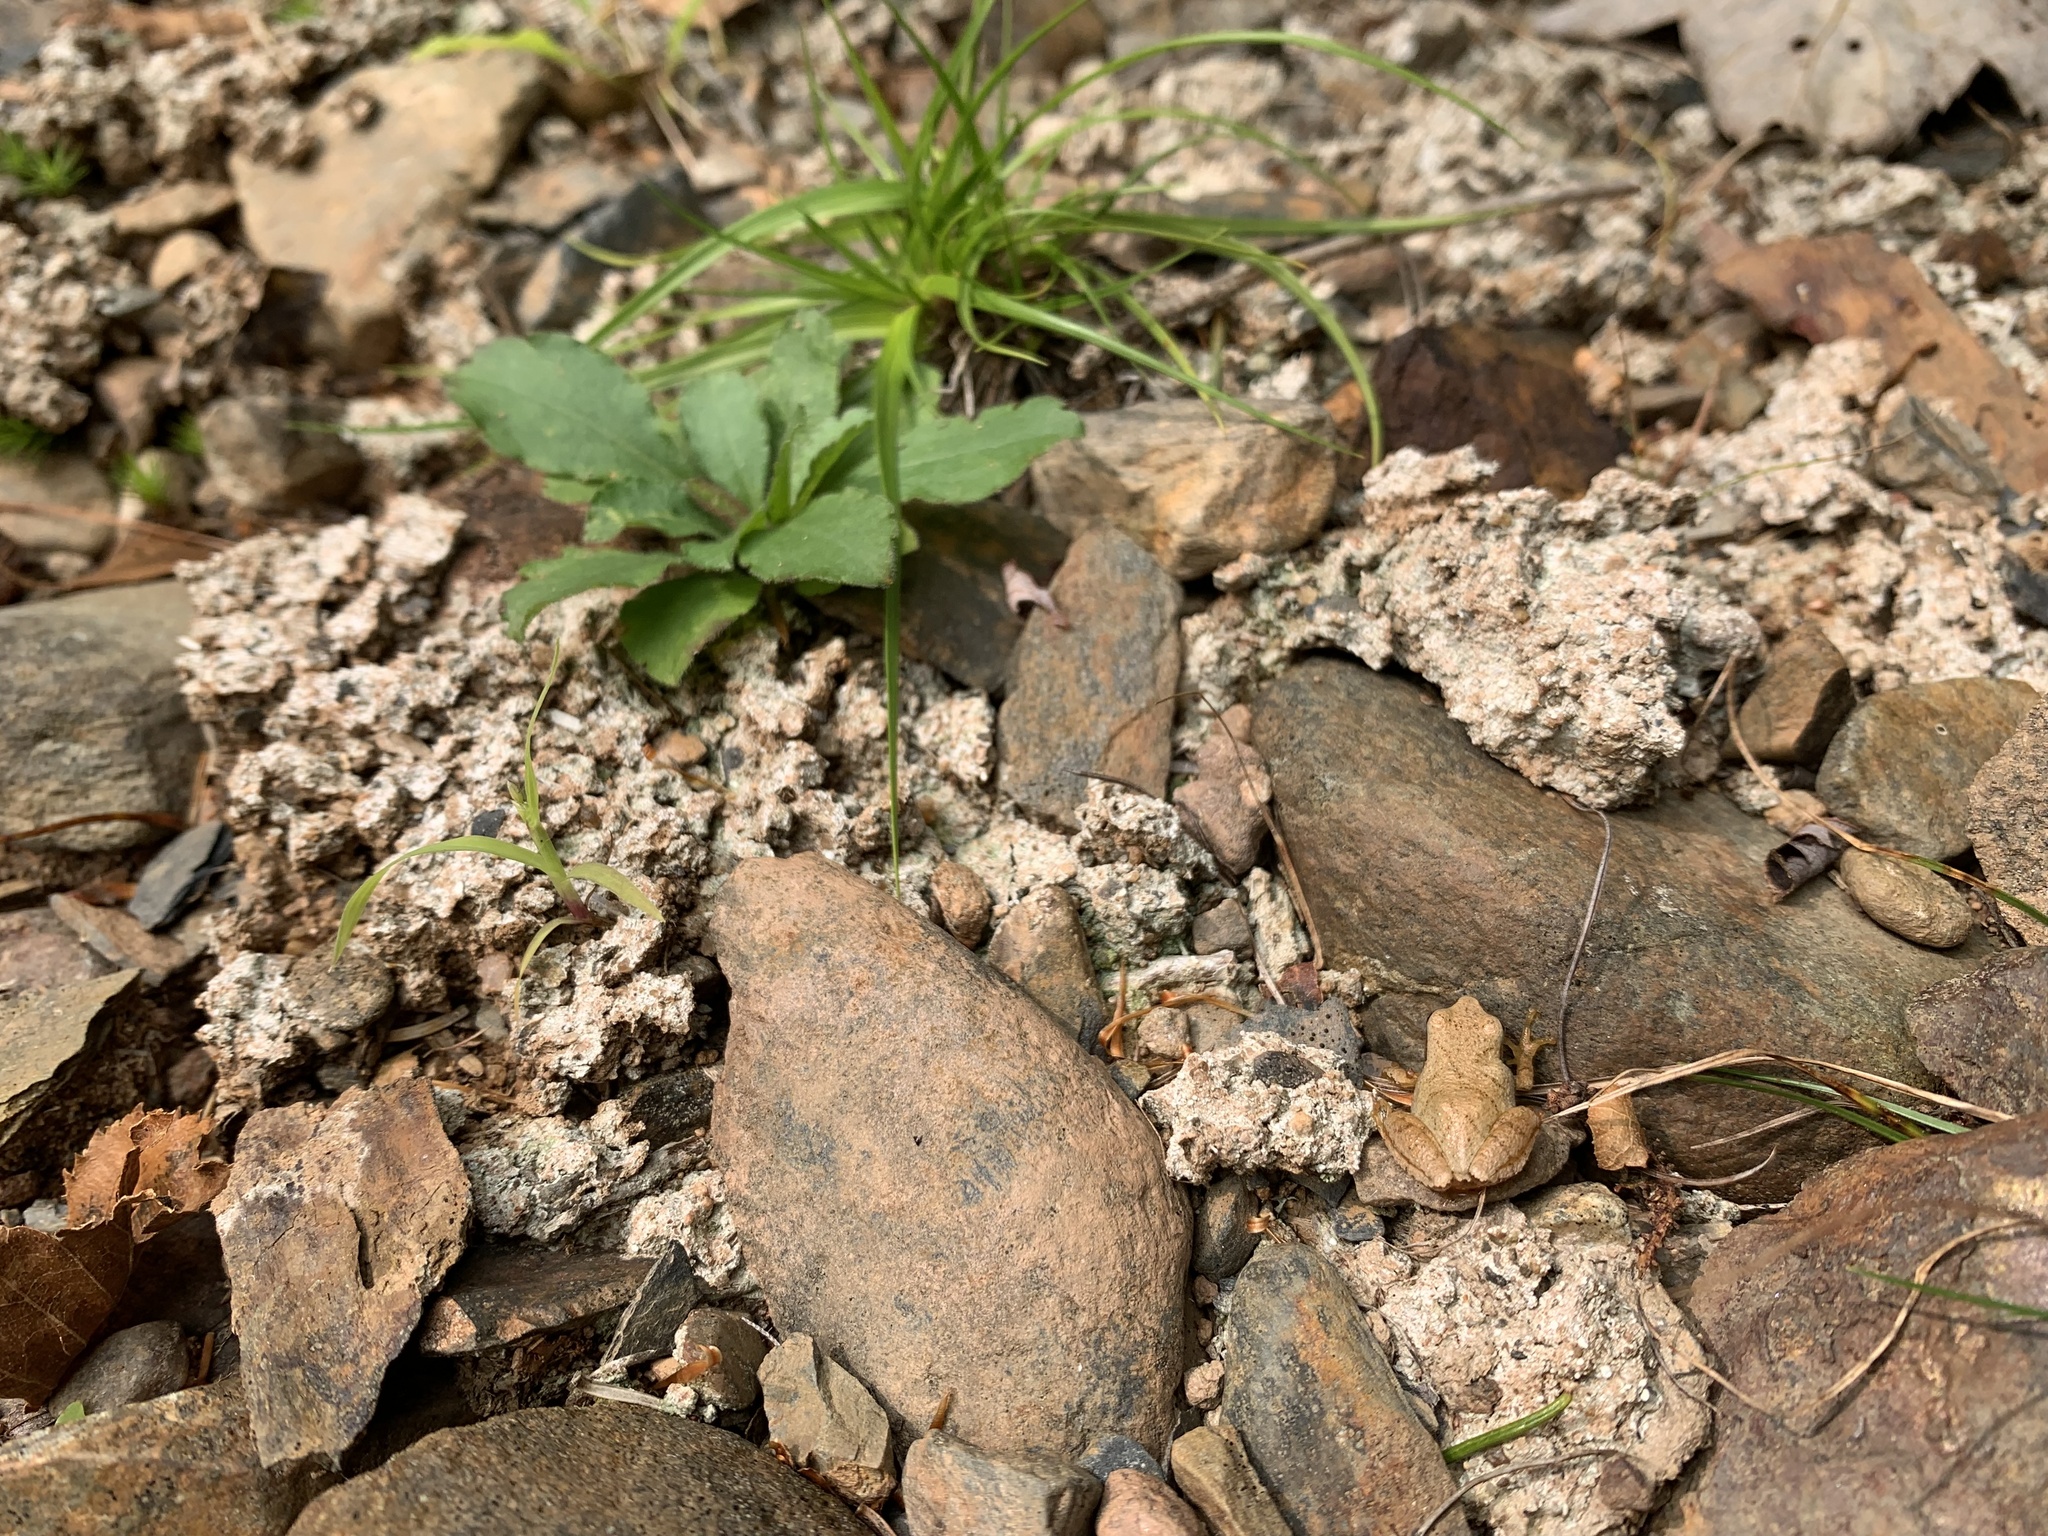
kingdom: Animalia
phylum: Chordata
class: Amphibia
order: Anura
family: Hylidae
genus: Pseudacris
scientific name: Pseudacris crucifer
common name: Spring peeper
